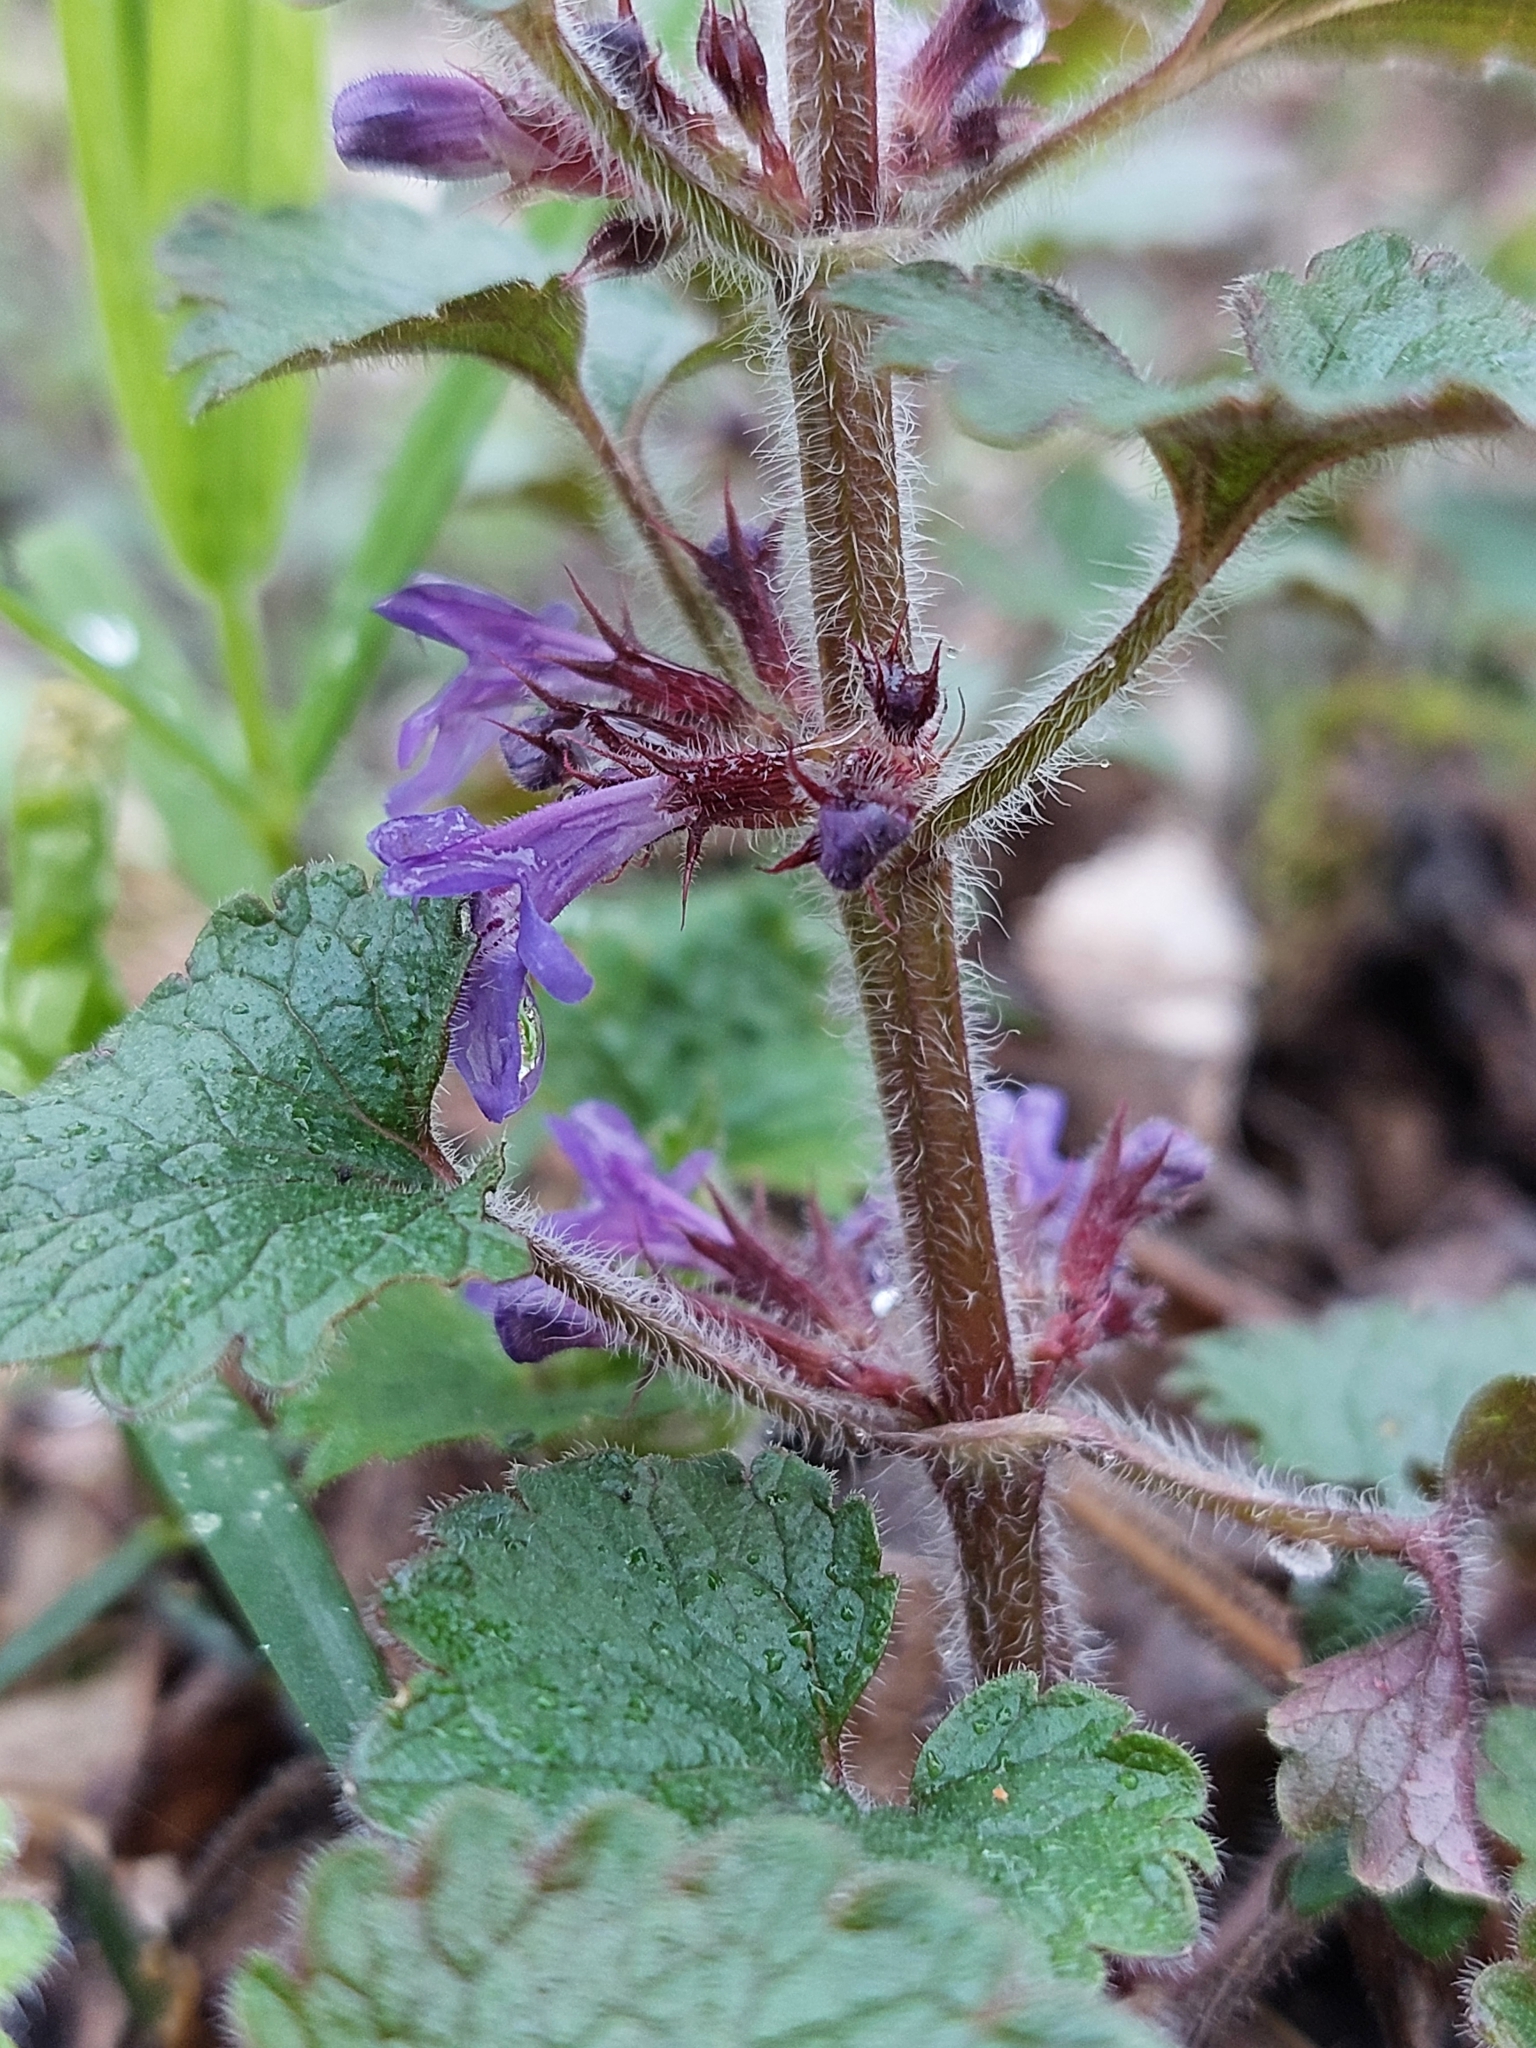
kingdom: Plantae
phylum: Tracheophyta
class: Magnoliopsida
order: Lamiales
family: Lamiaceae
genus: Glechoma
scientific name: Glechoma hirsuta
